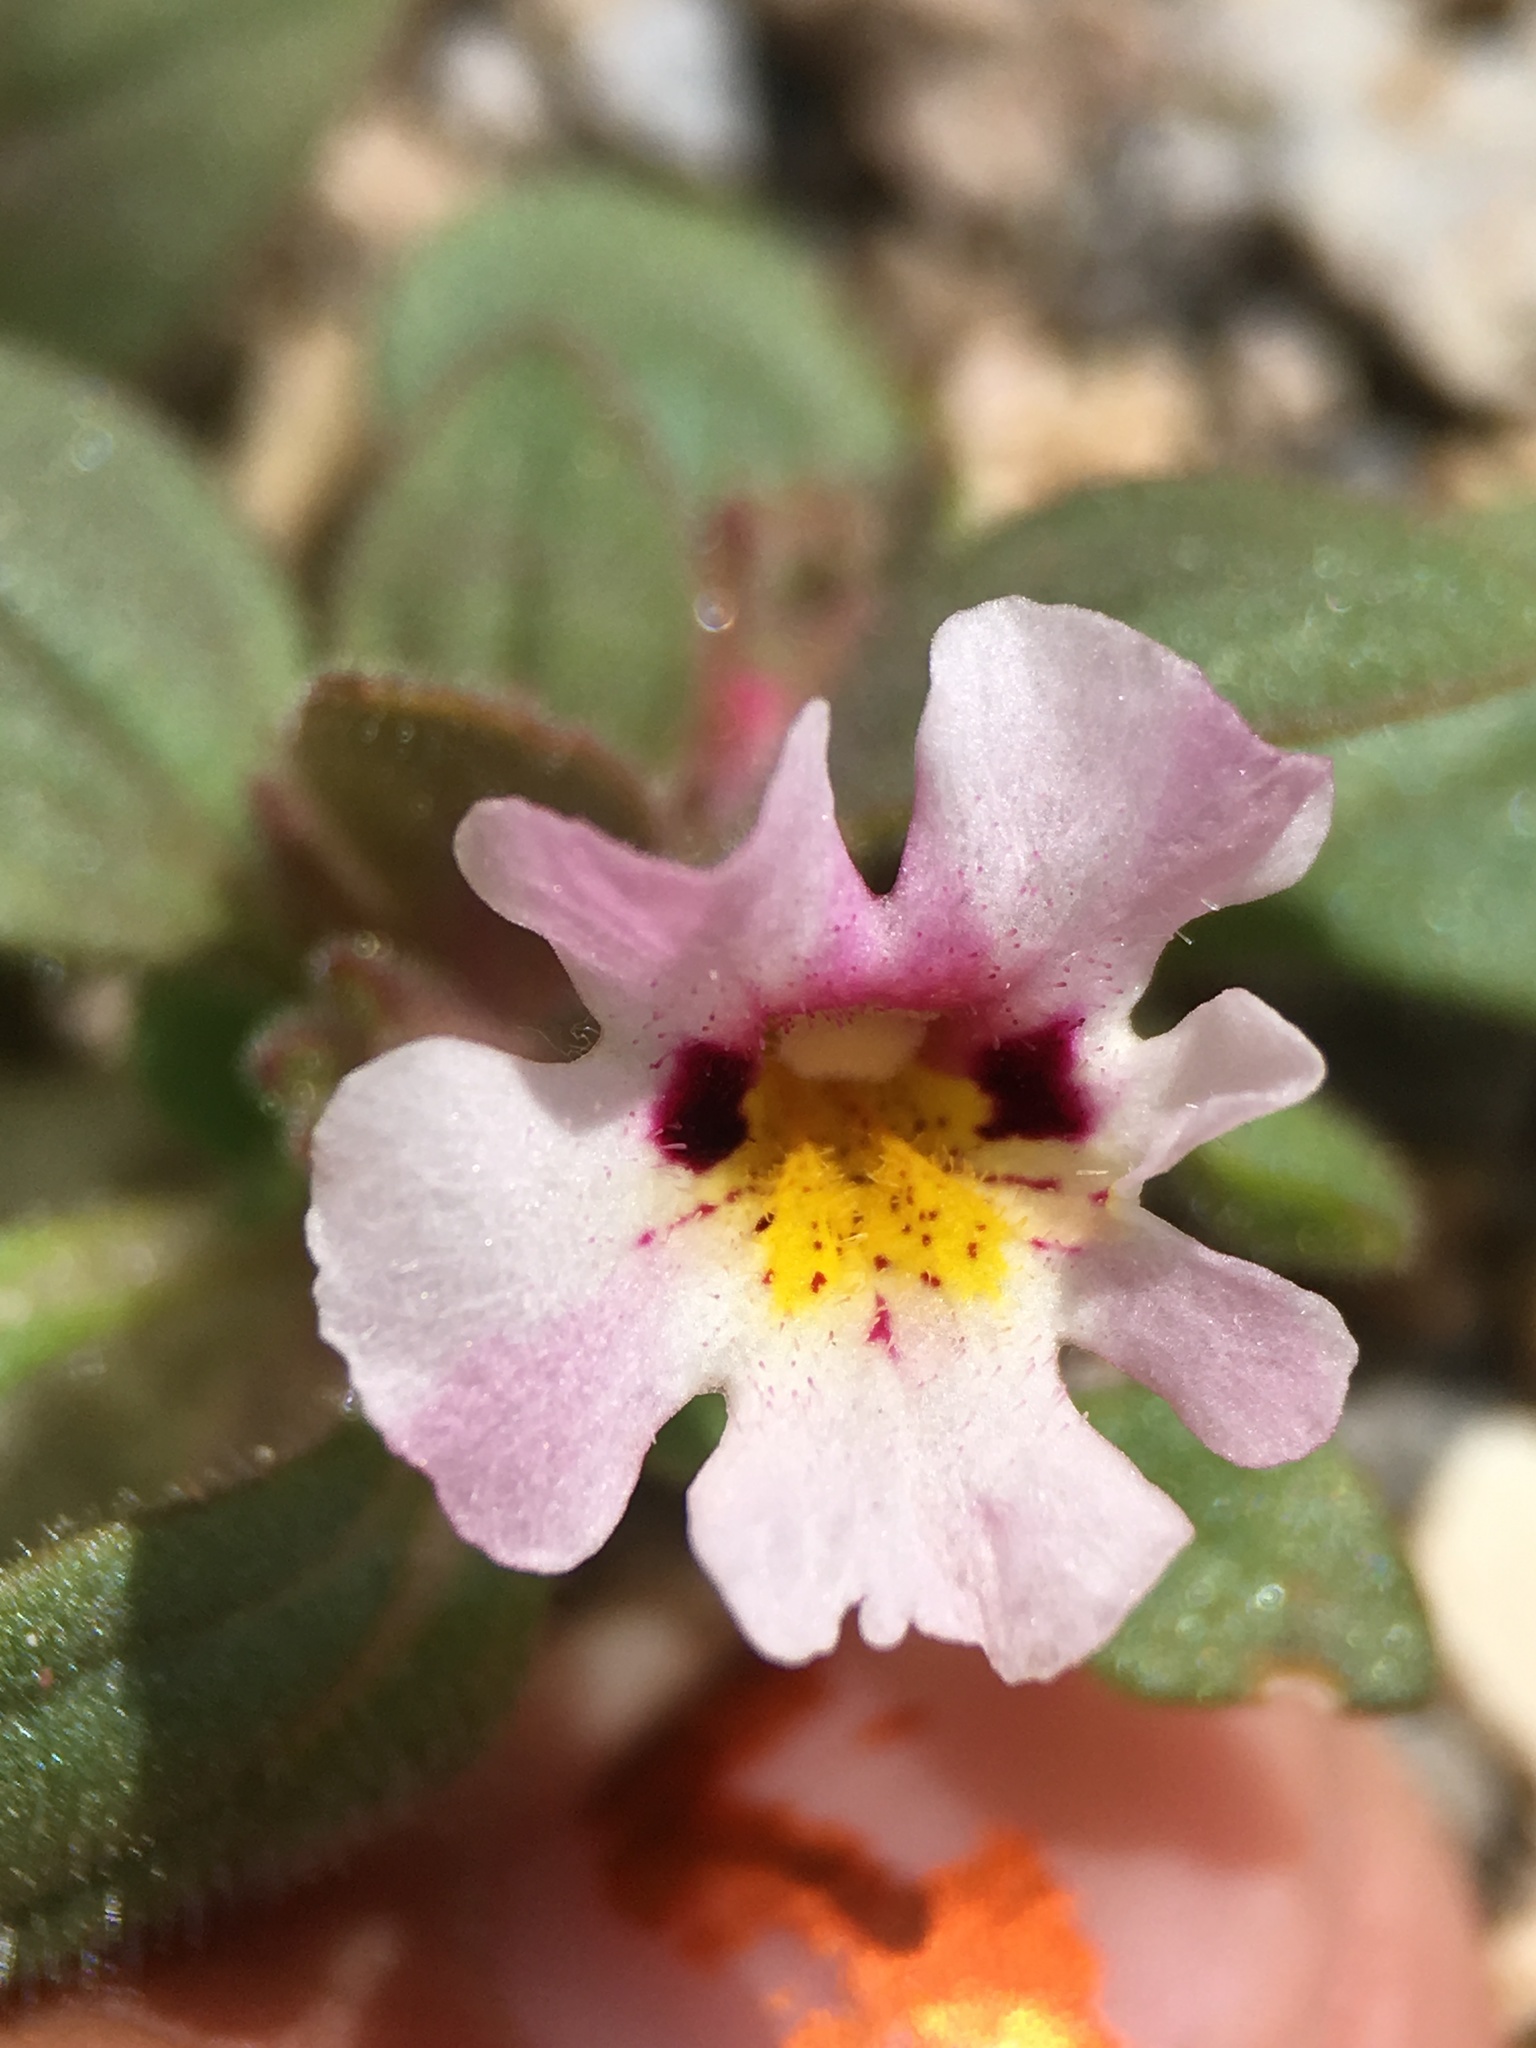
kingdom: Plantae
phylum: Tracheophyta
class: Magnoliopsida
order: Lamiales
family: Phrymaceae
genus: Diplacus
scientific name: Diplacus johnstonii
